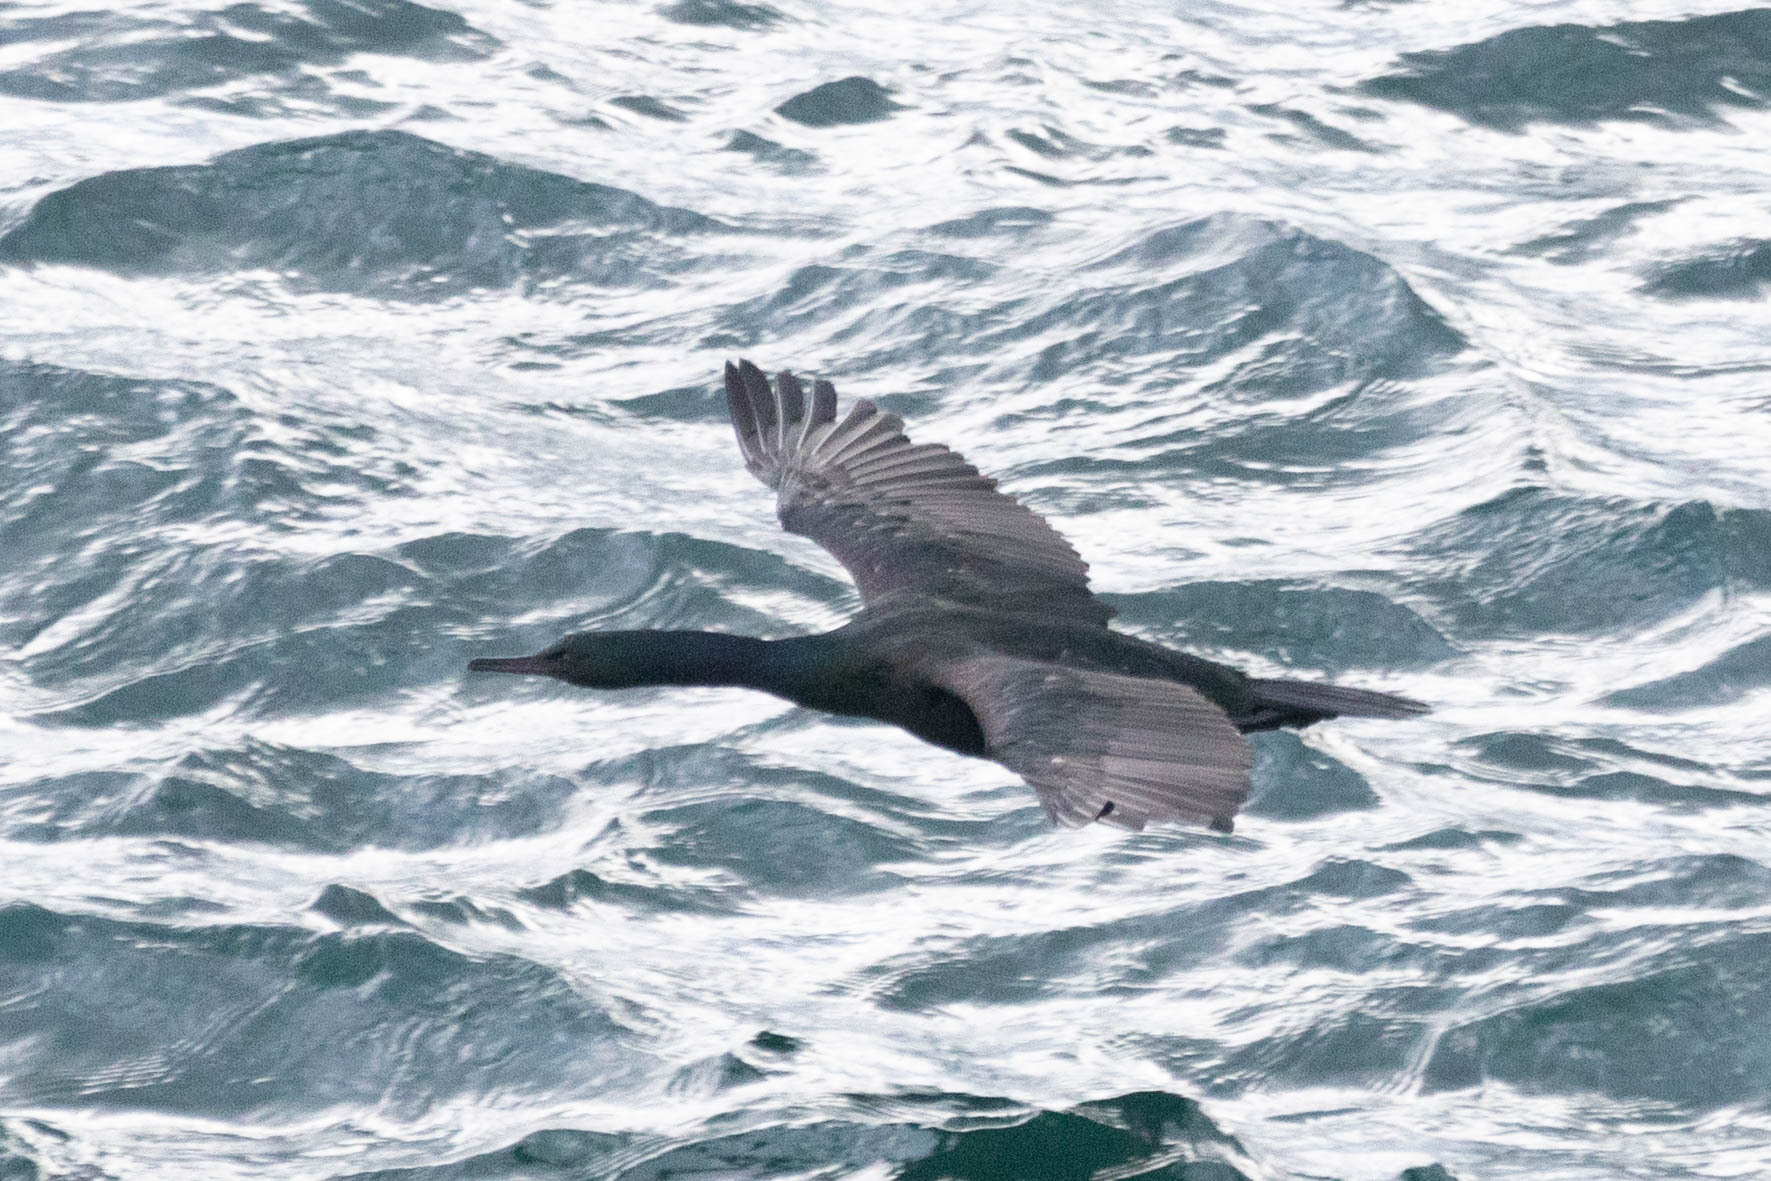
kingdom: Animalia
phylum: Chordata
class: Aves
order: Suliformes
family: Phalacrocoracidae
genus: Phalacrocorax
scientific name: Phalacrocorax pelagicus
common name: Pelagic cormorant
